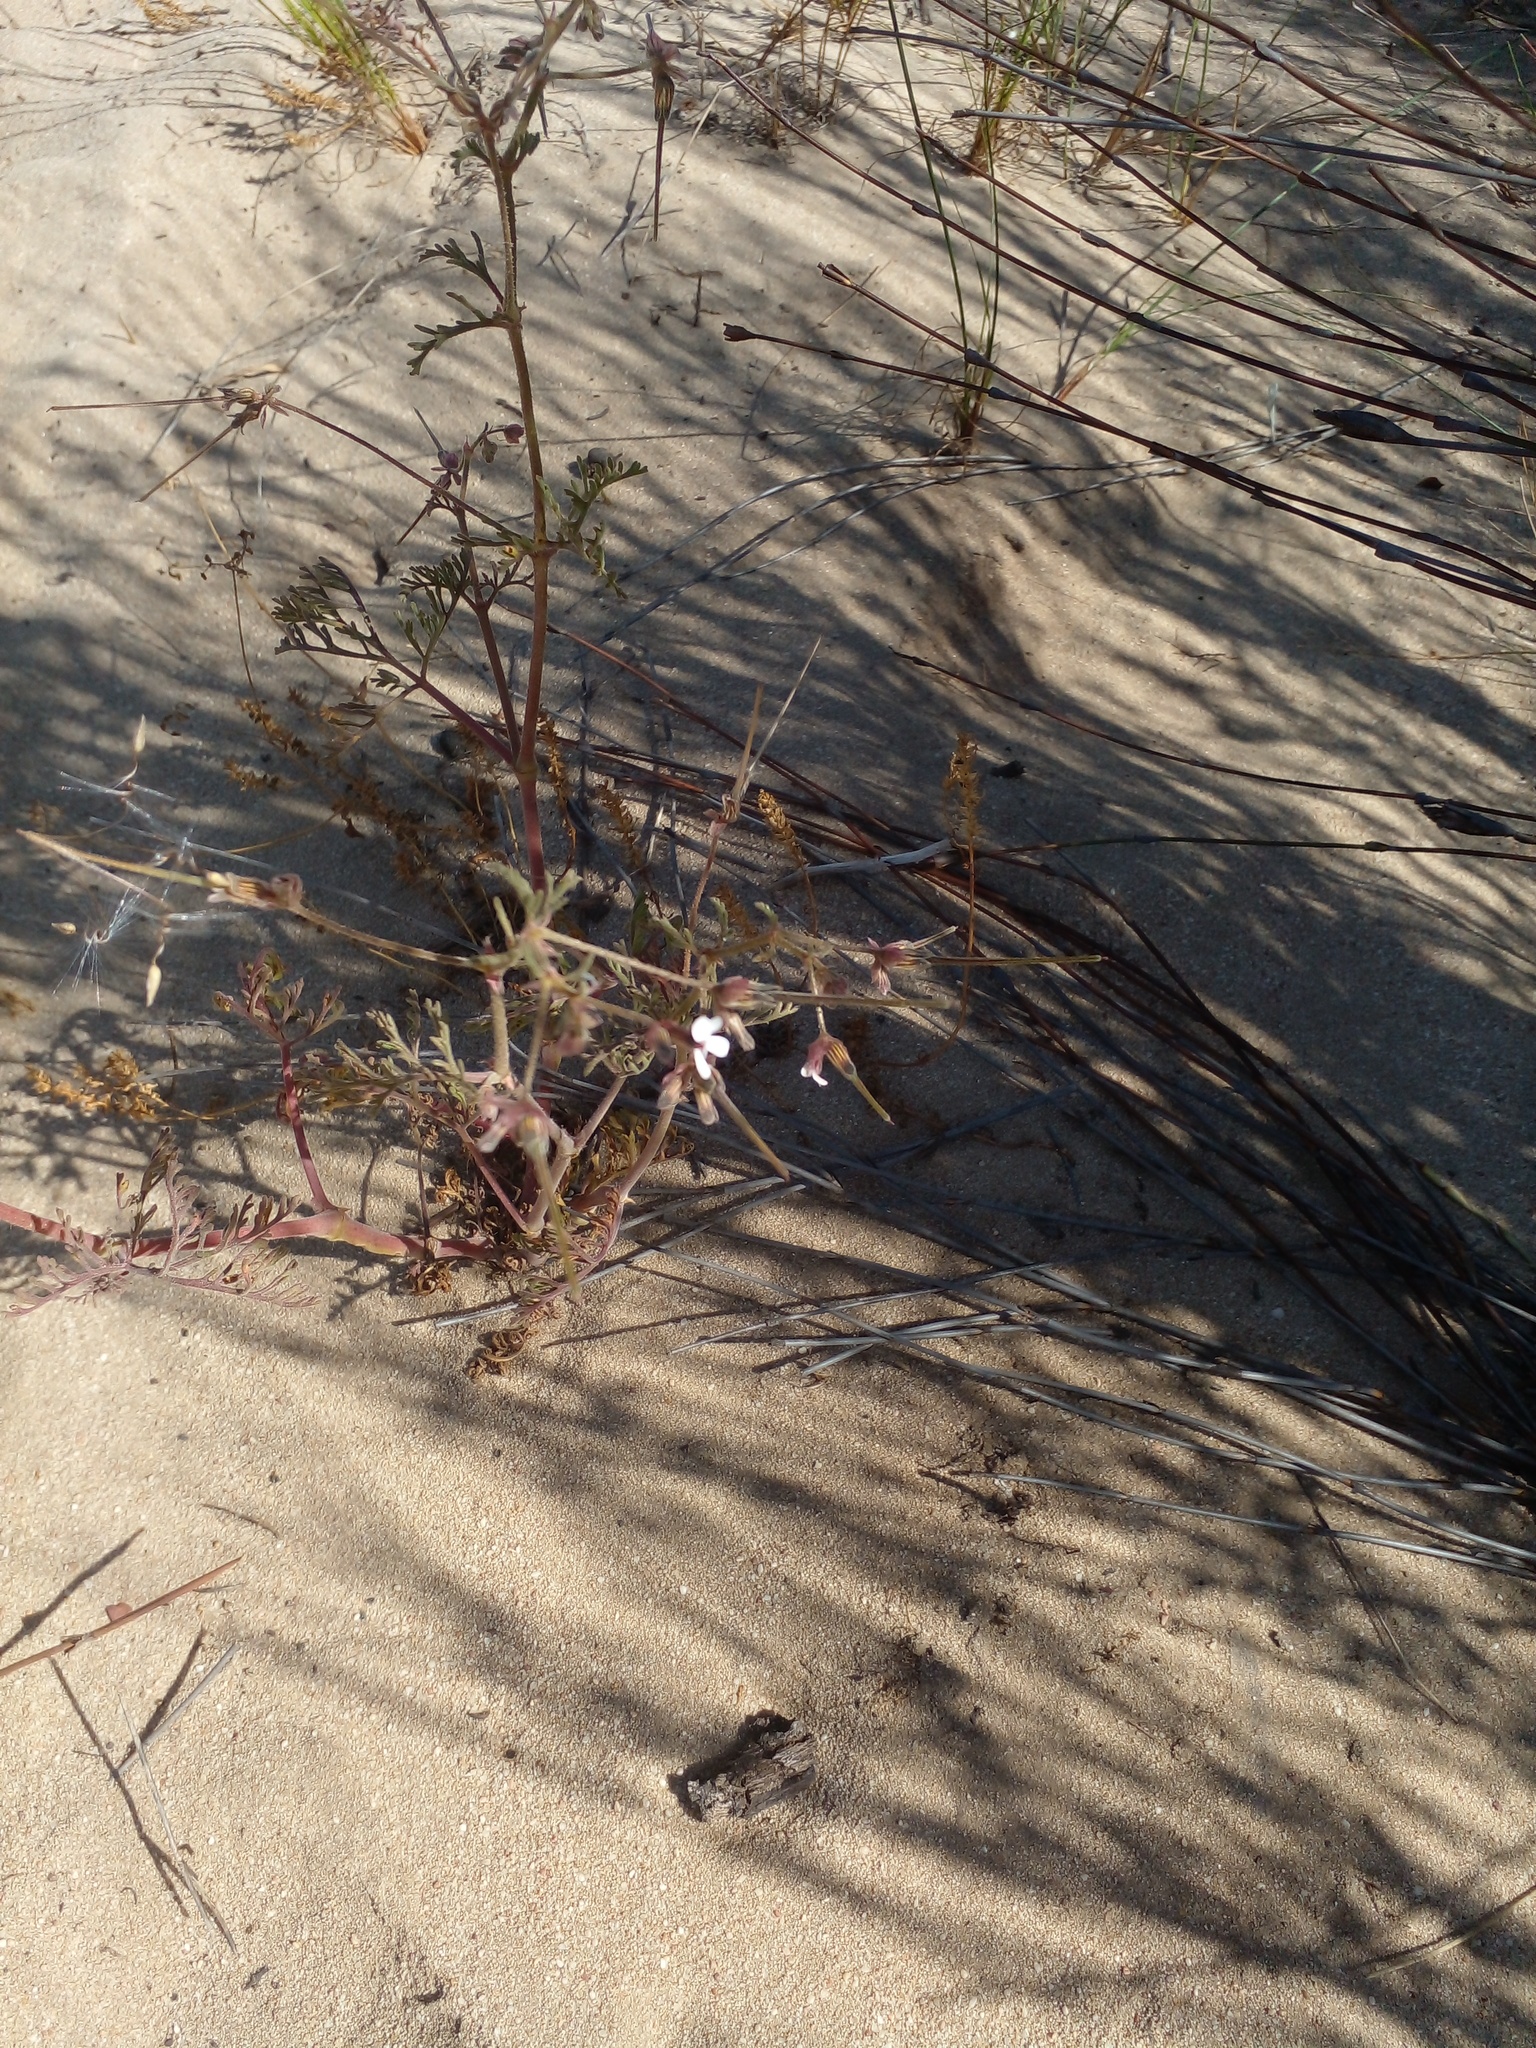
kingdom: Plantae
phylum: Tracheophyta
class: Magnoliopsida
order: Geraniales
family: Geraniaceae
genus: Pelargonium
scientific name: Pelargonium senecioides
